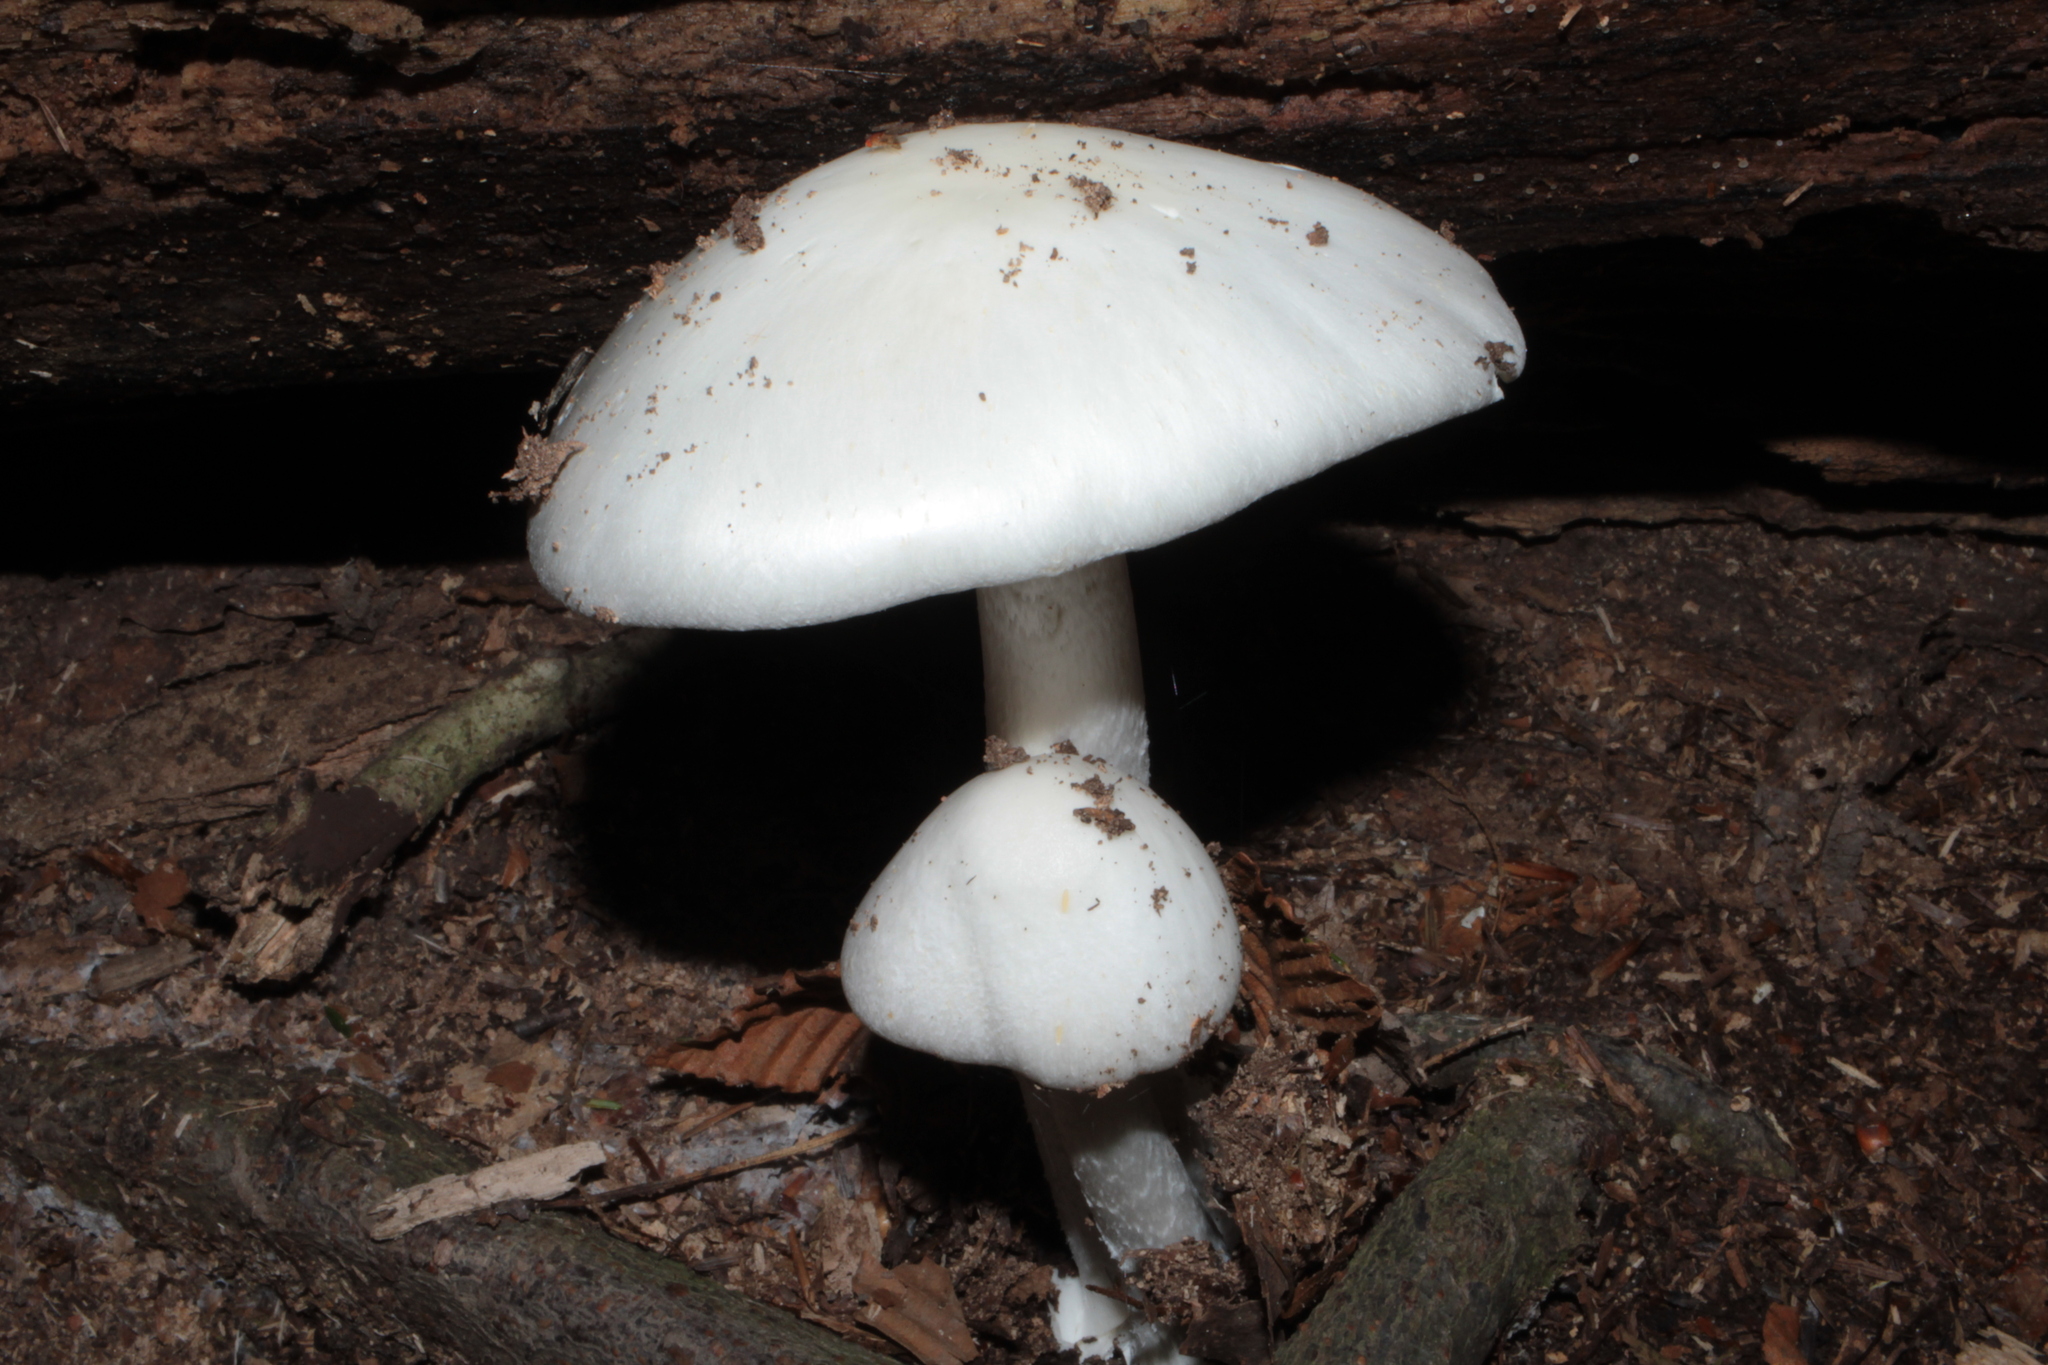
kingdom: Fungi
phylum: Basidiomycota
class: Agaricomycetes
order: Agaricales
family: Amanitaceae
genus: Amanita
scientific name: Amanita bisporigera
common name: Eastern north american destroying angel
